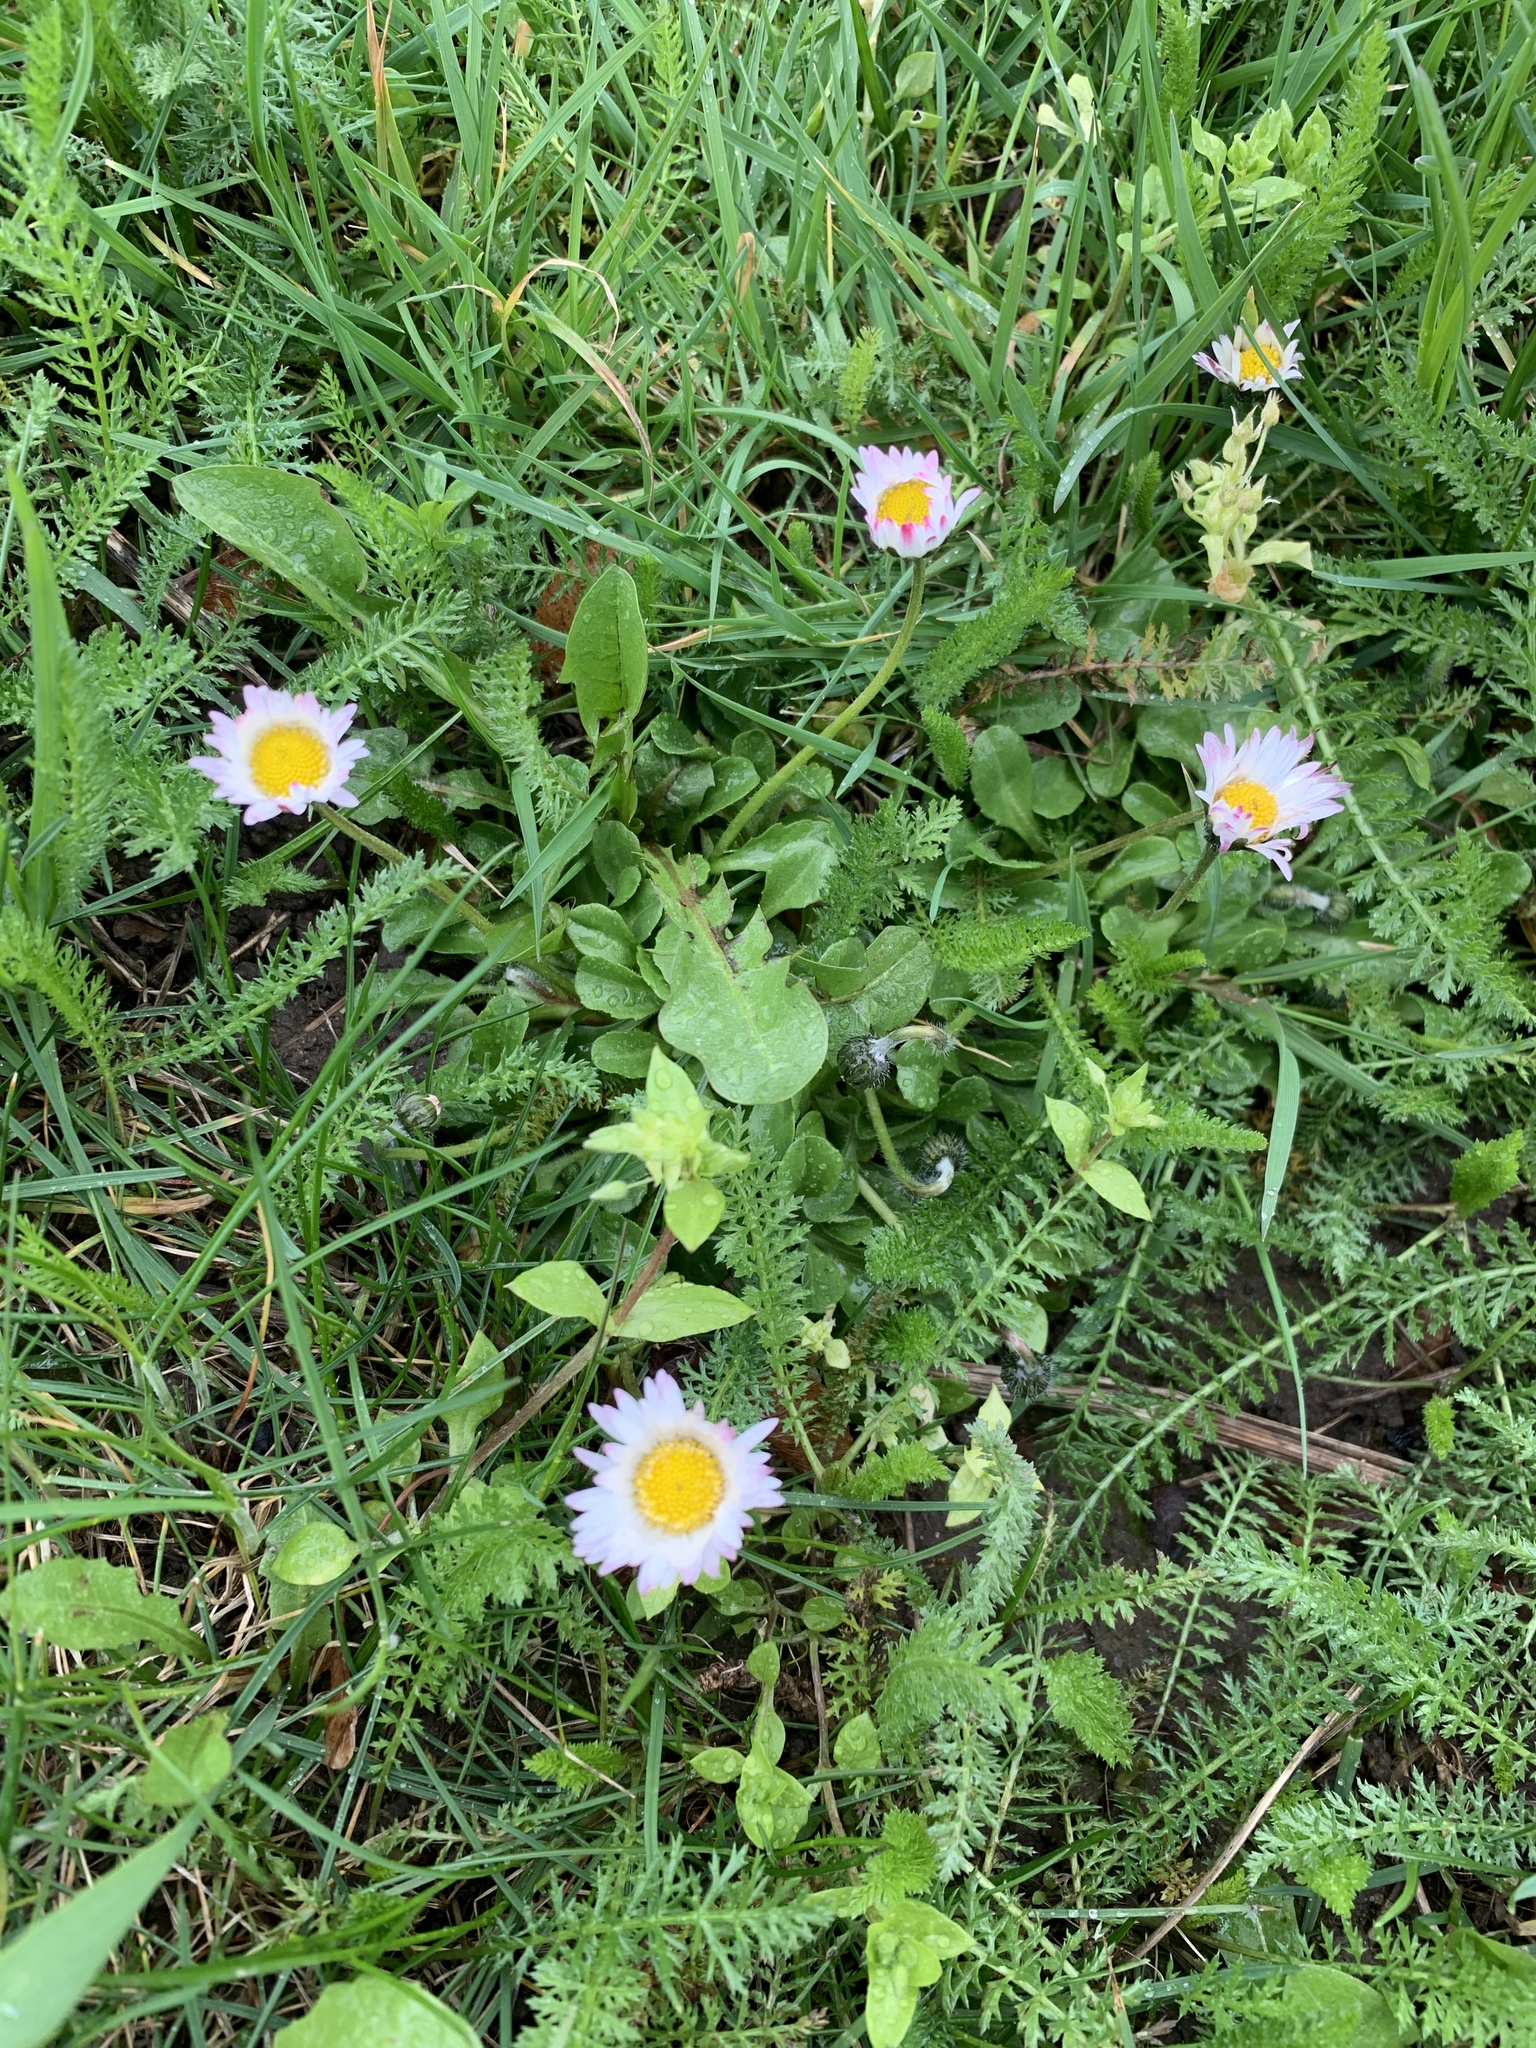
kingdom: Plantae
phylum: Tracheophyta
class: Magnoliopsida
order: Asterales
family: Asteraceae
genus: Bellis
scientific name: Bellis perennis
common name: Lawndaisy
